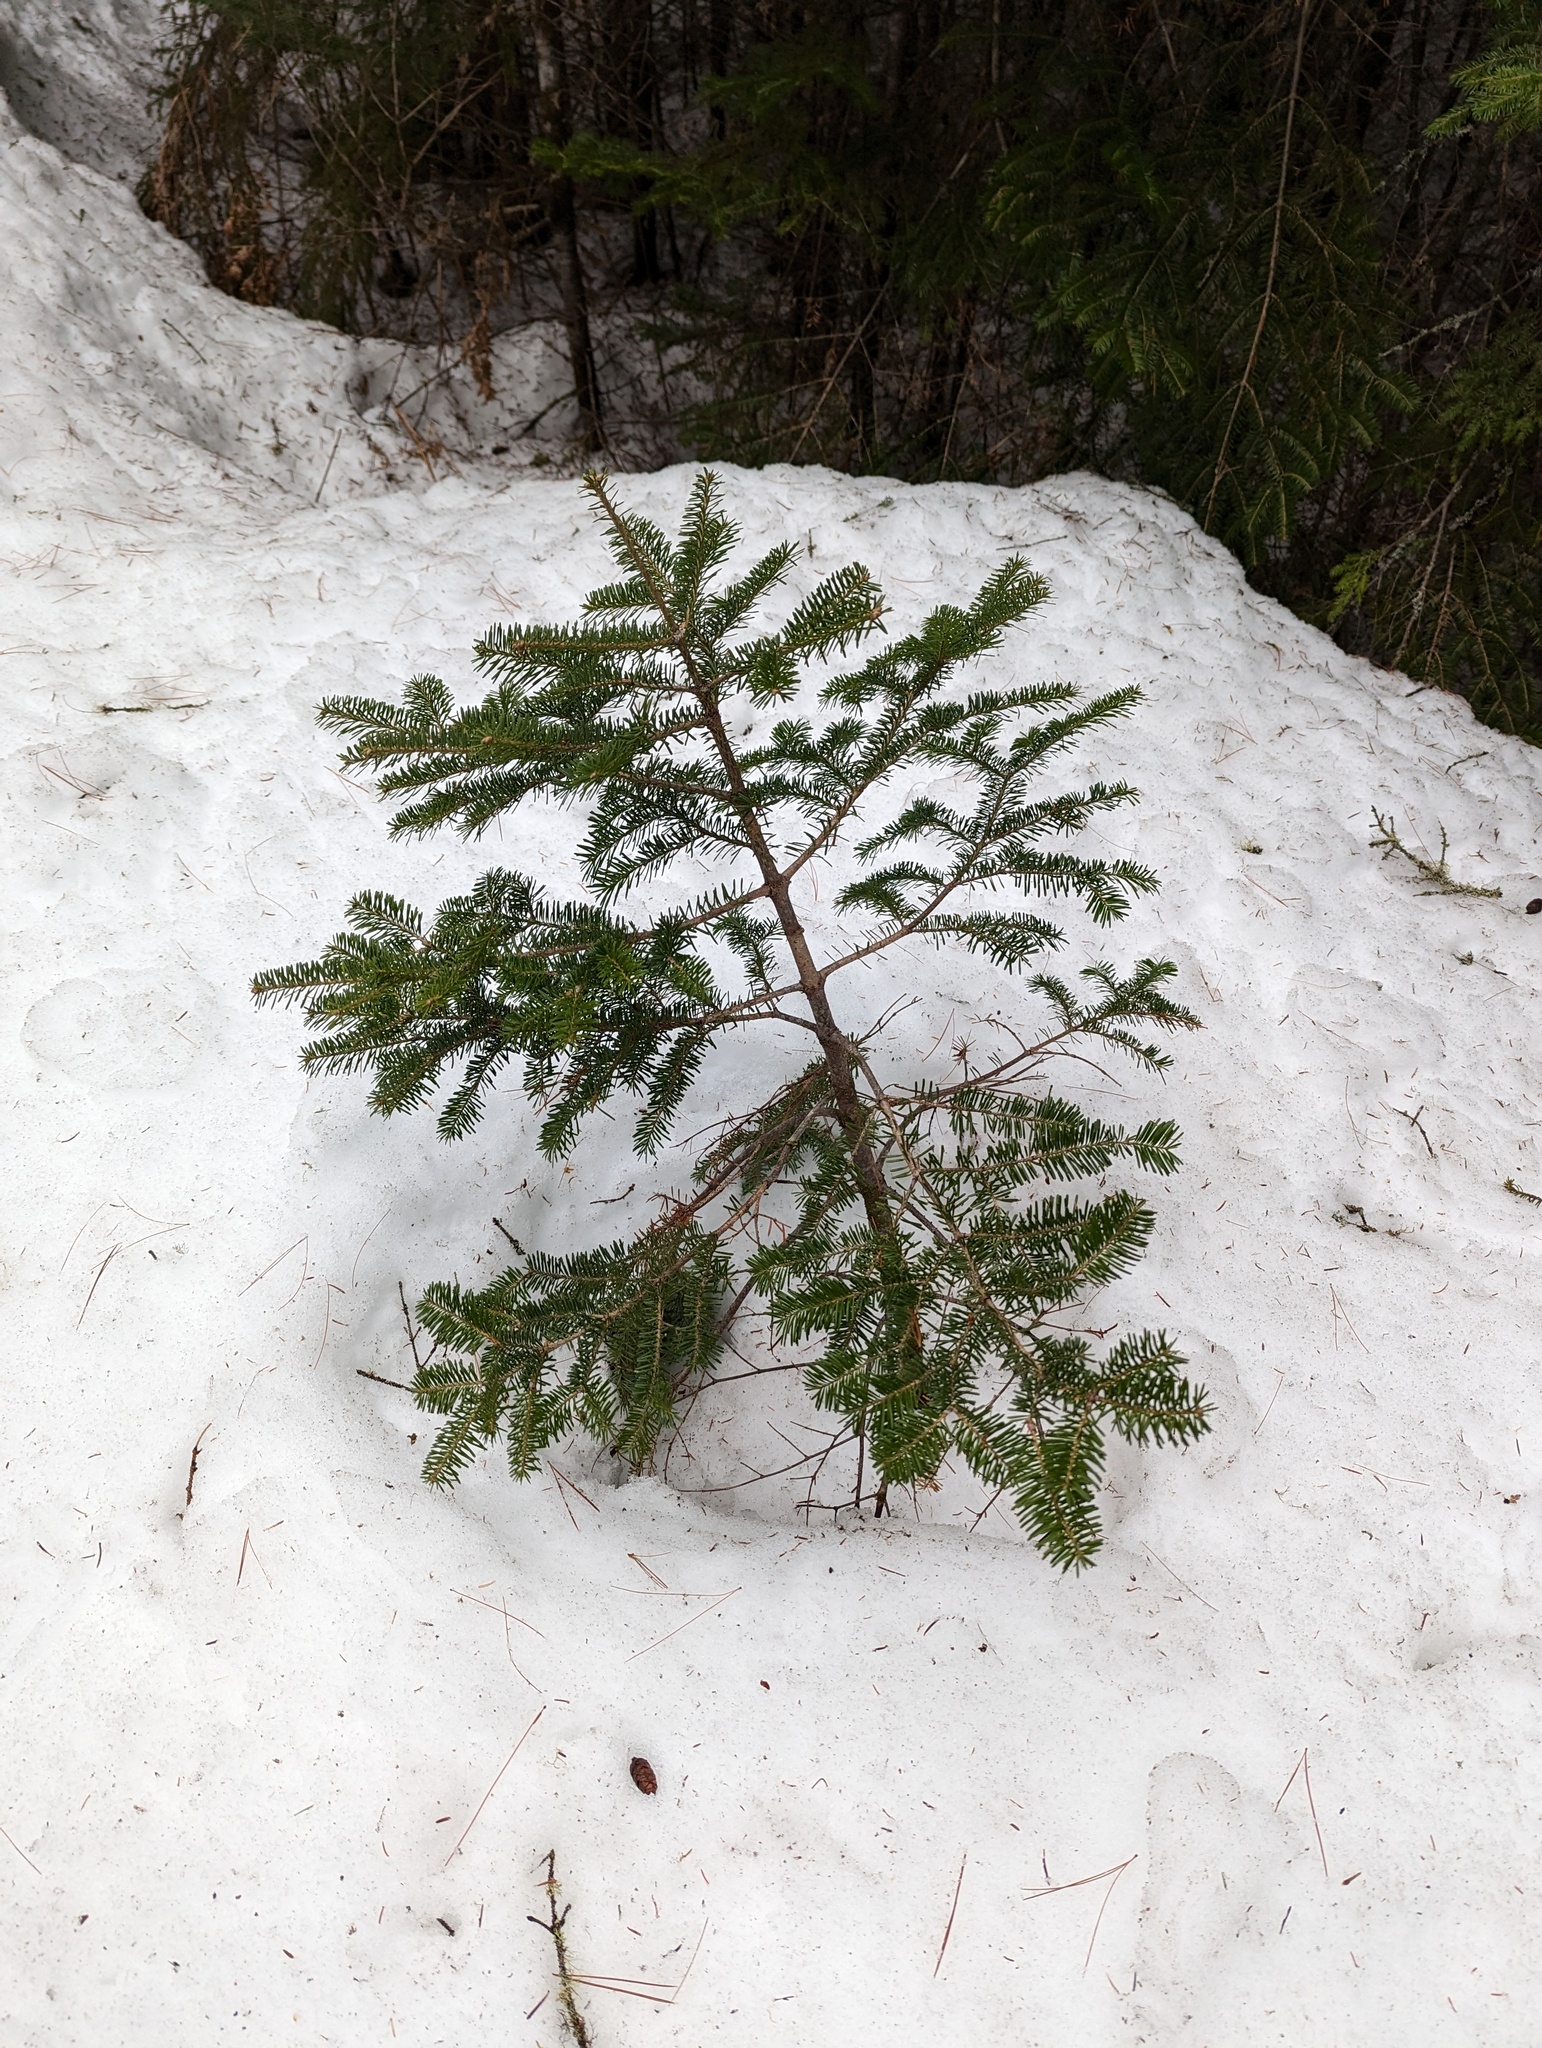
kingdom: Plantae
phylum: Tracheophyta
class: Pinopsida
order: Pinales
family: Pinaceae
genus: Abies
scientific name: Abies balsamea
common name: Balsam fir
